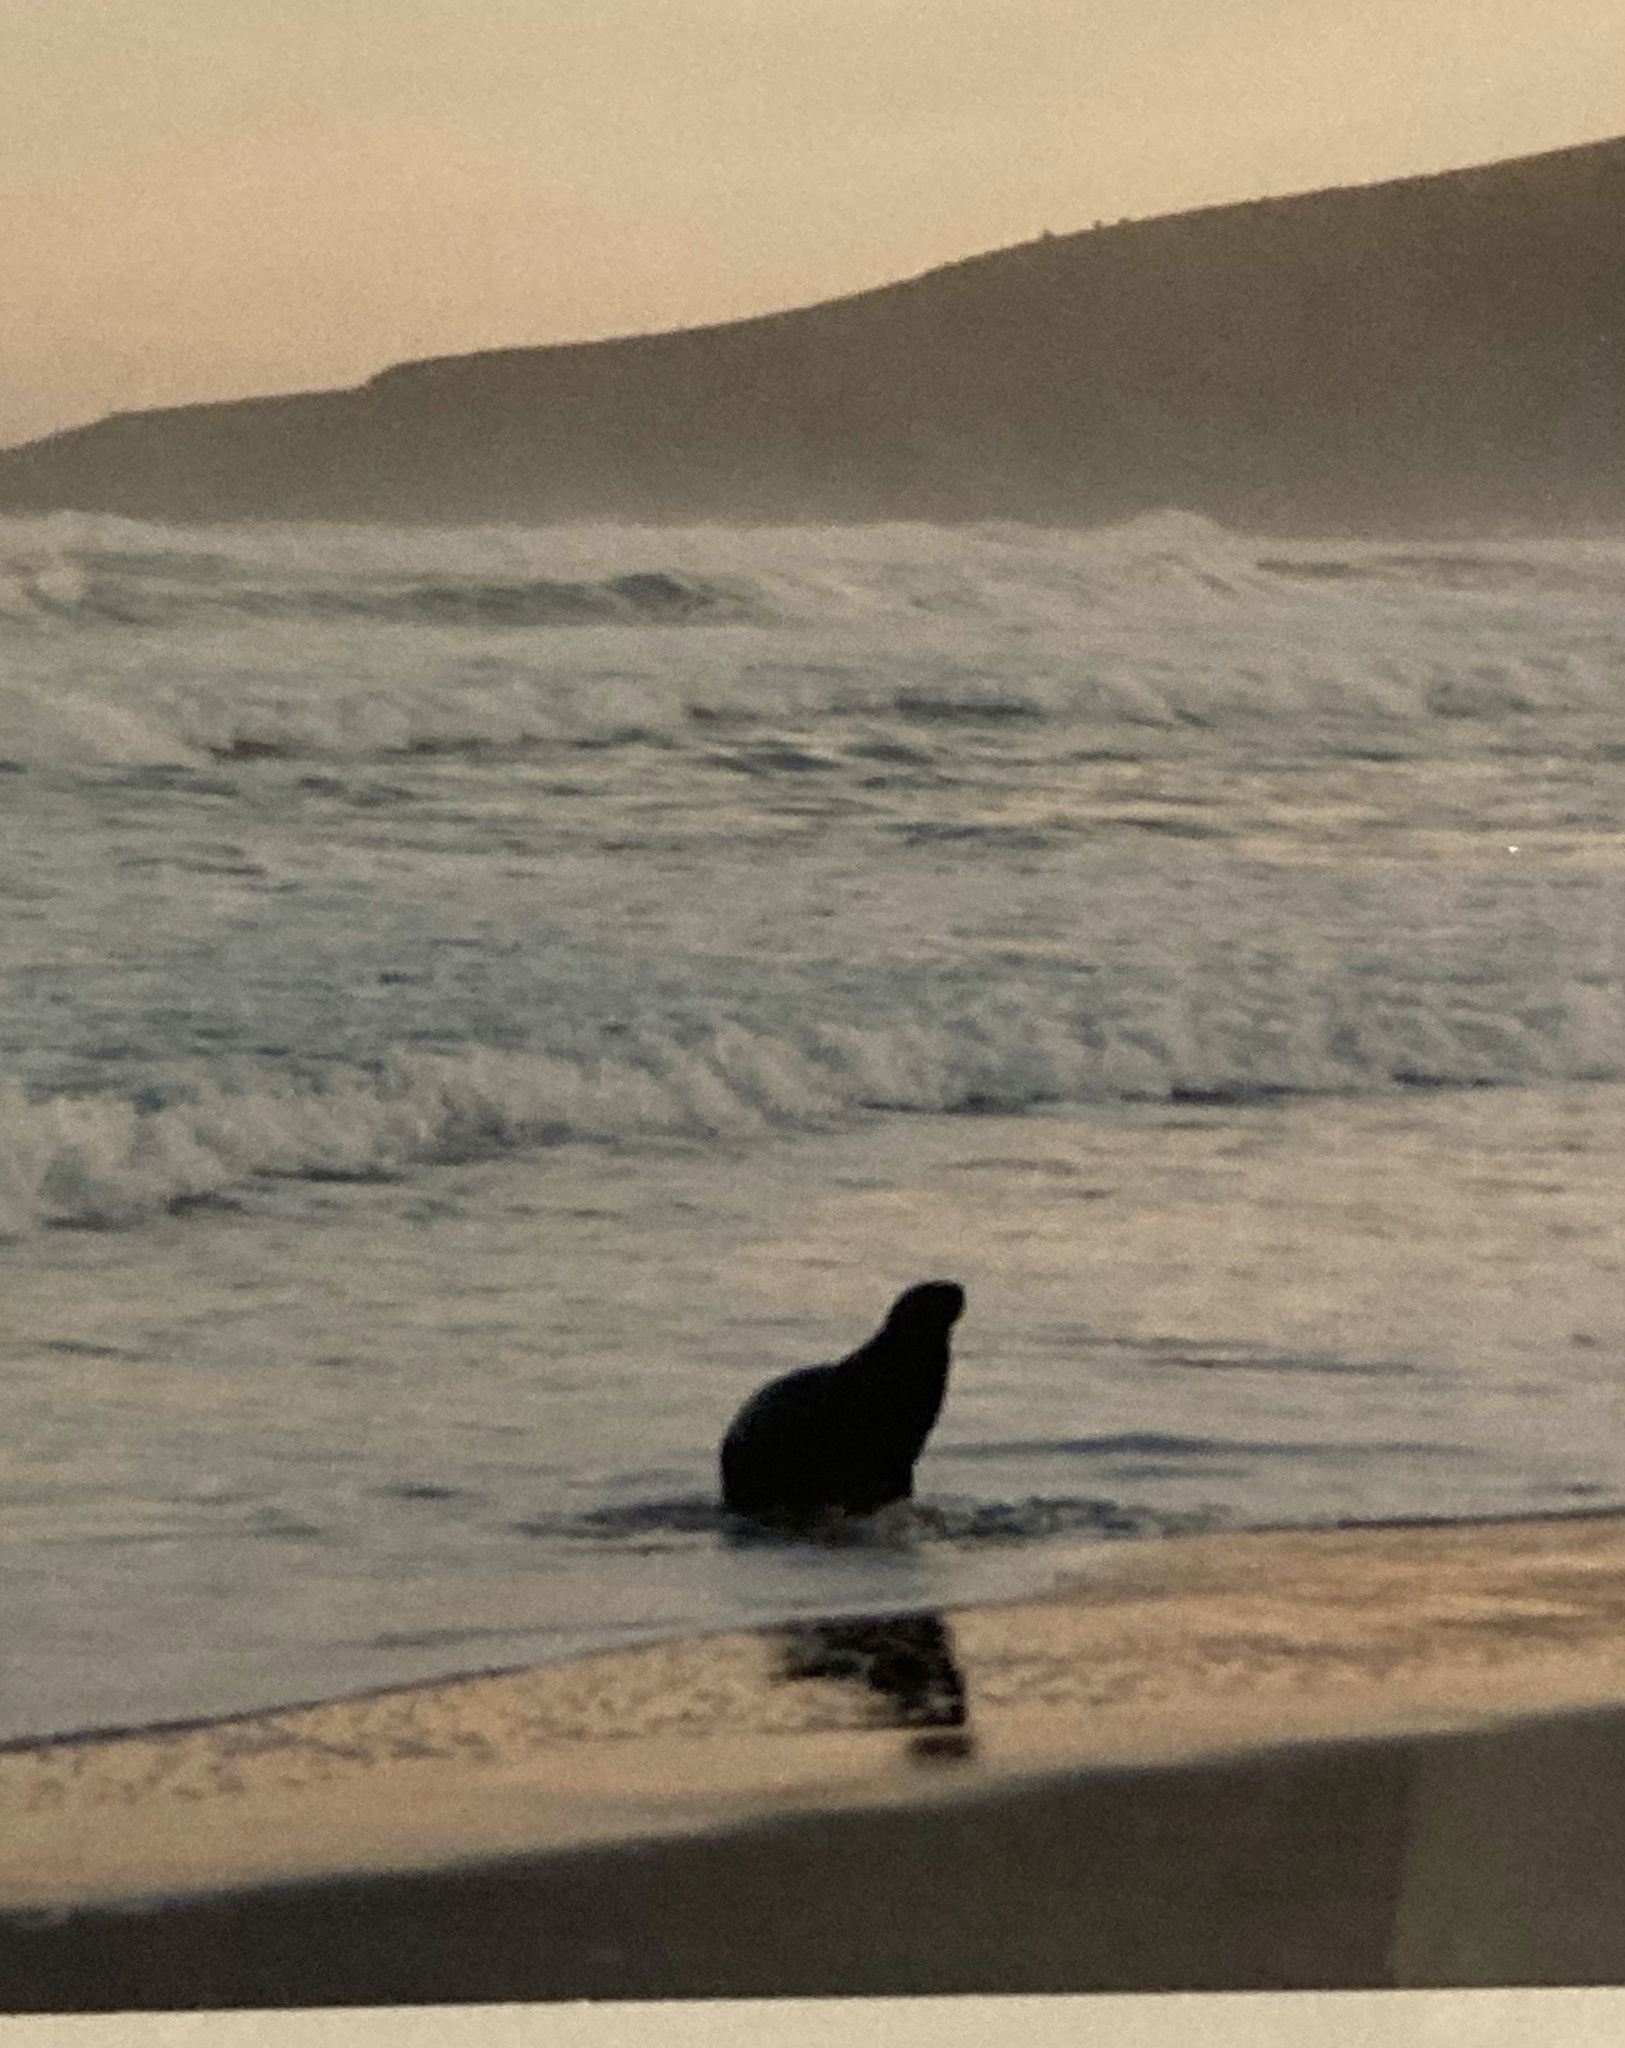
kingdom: Animalia
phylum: Chordata
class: Mammalia
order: Carnivora
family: Otariidae
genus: Phocarctos
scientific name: Phocarctos hookeri
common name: New zealand sea lion
